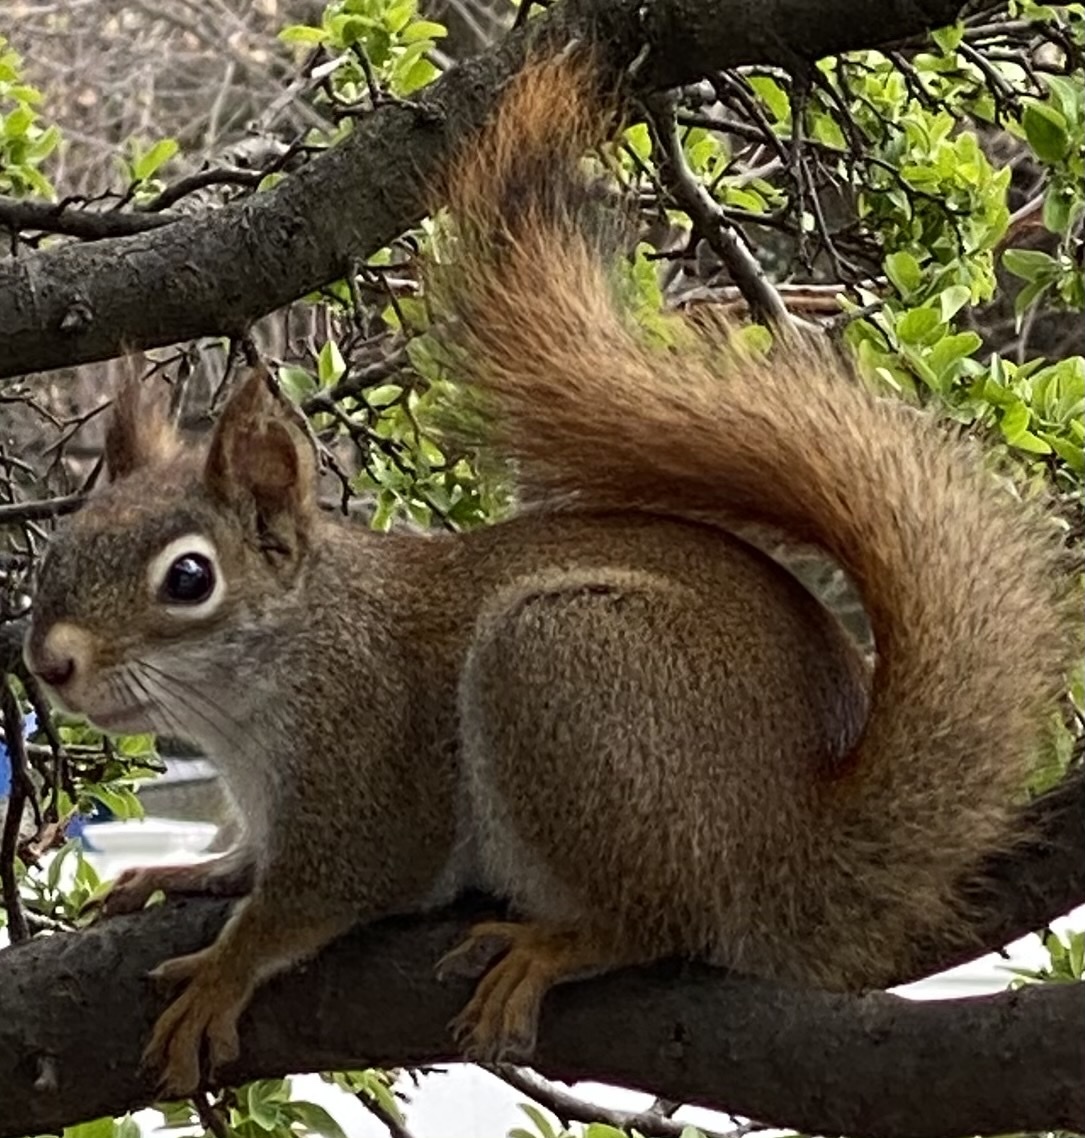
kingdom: Animalia
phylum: Chordata
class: Mammalia
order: Rodentia
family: Sciuridae
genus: Tamiasciurus
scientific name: Tamiasciurus hudsonicus
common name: Red squirrel
